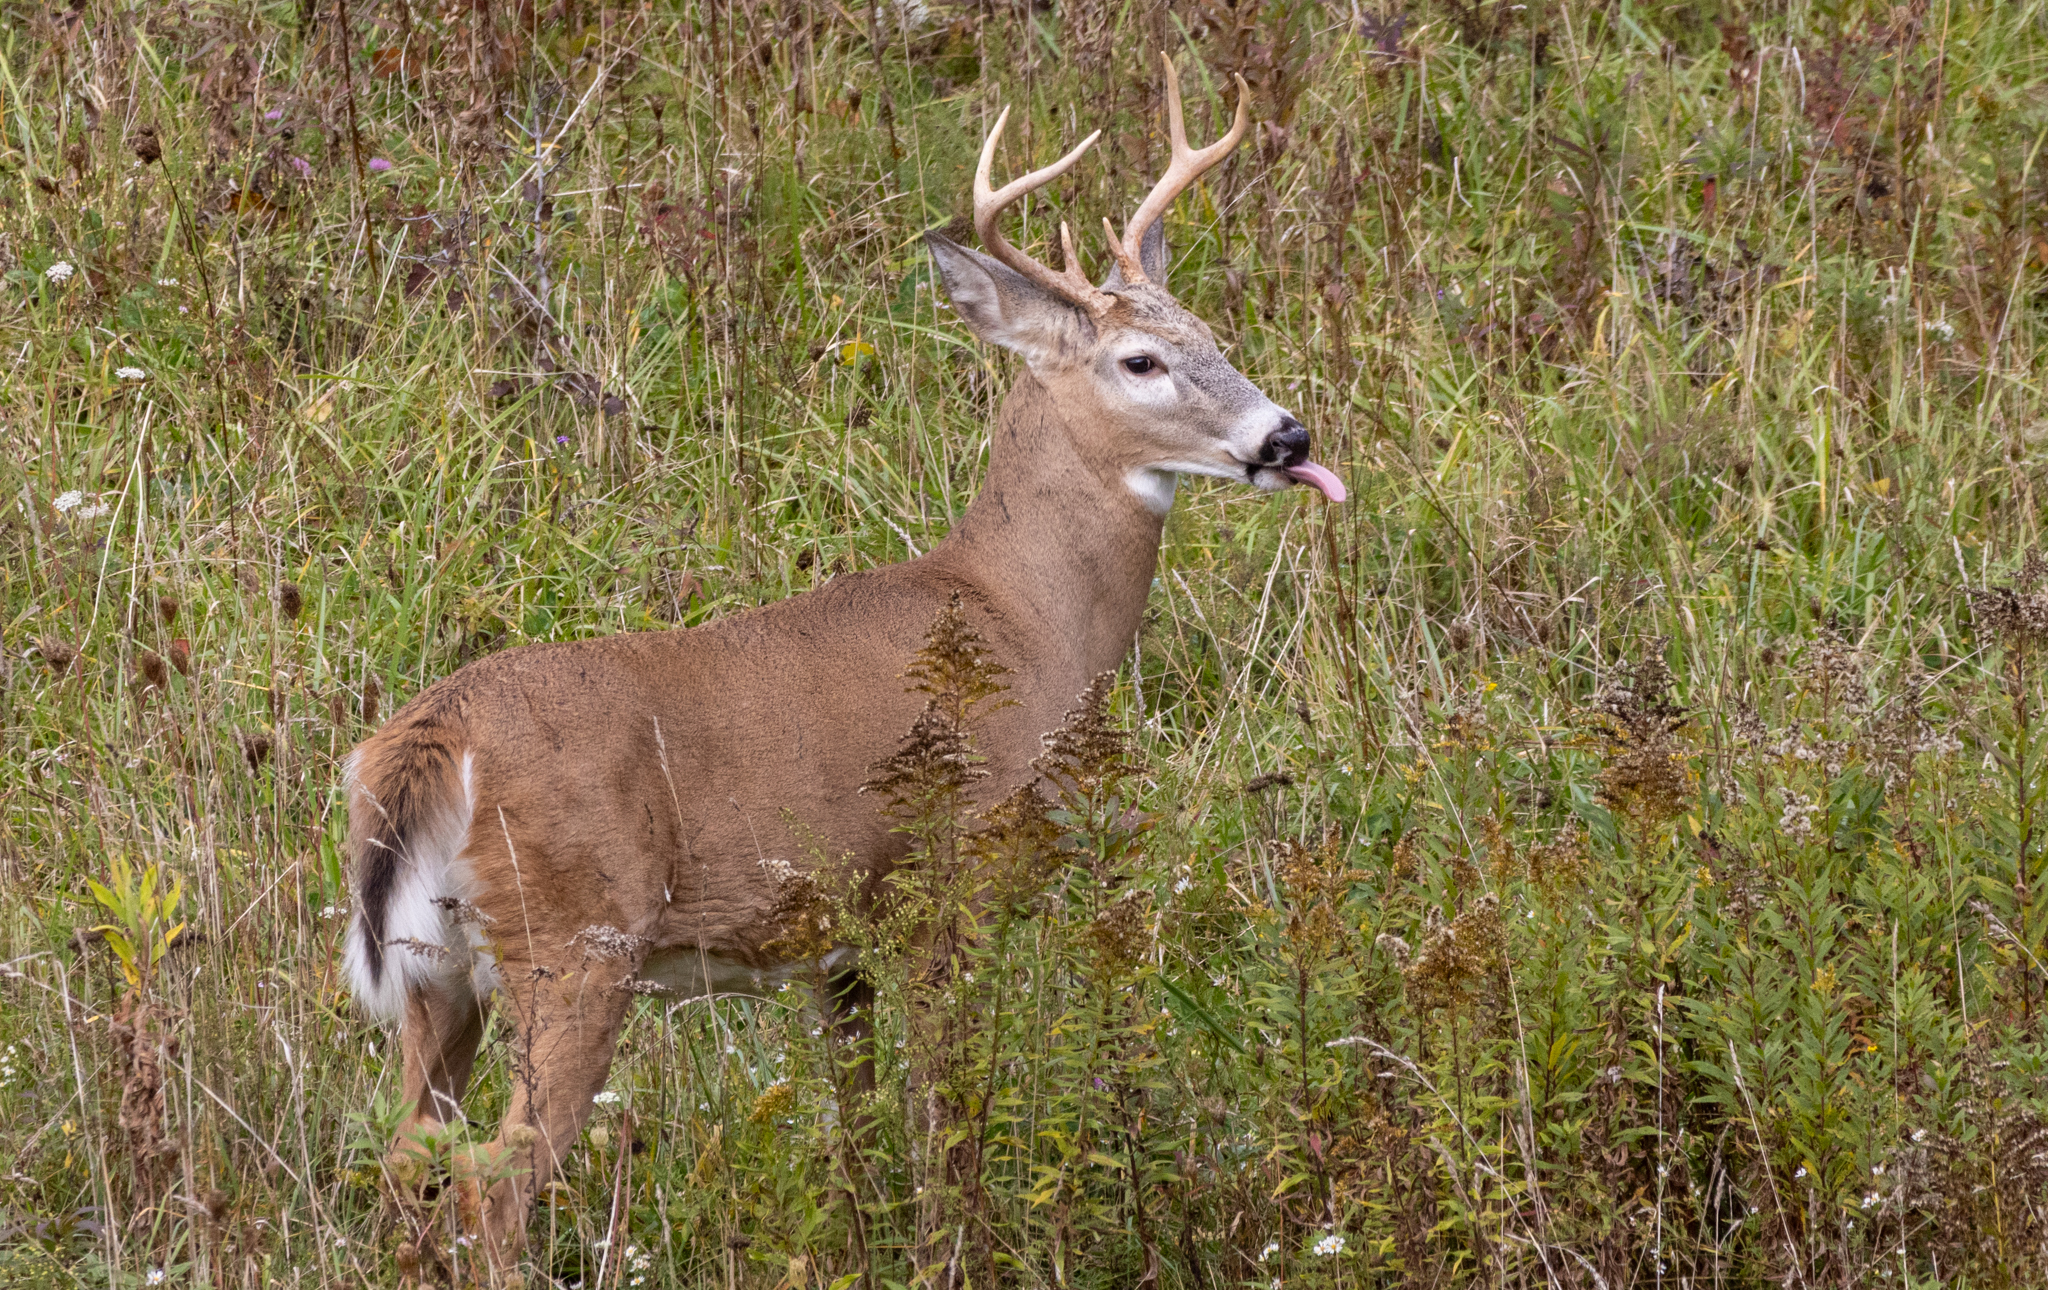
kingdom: Animalia
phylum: Chordata
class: Mammalia
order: Artiodactyla
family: Cervidae
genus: Odocoileus
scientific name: Odocoileus virginianus
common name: White-tailed deer
